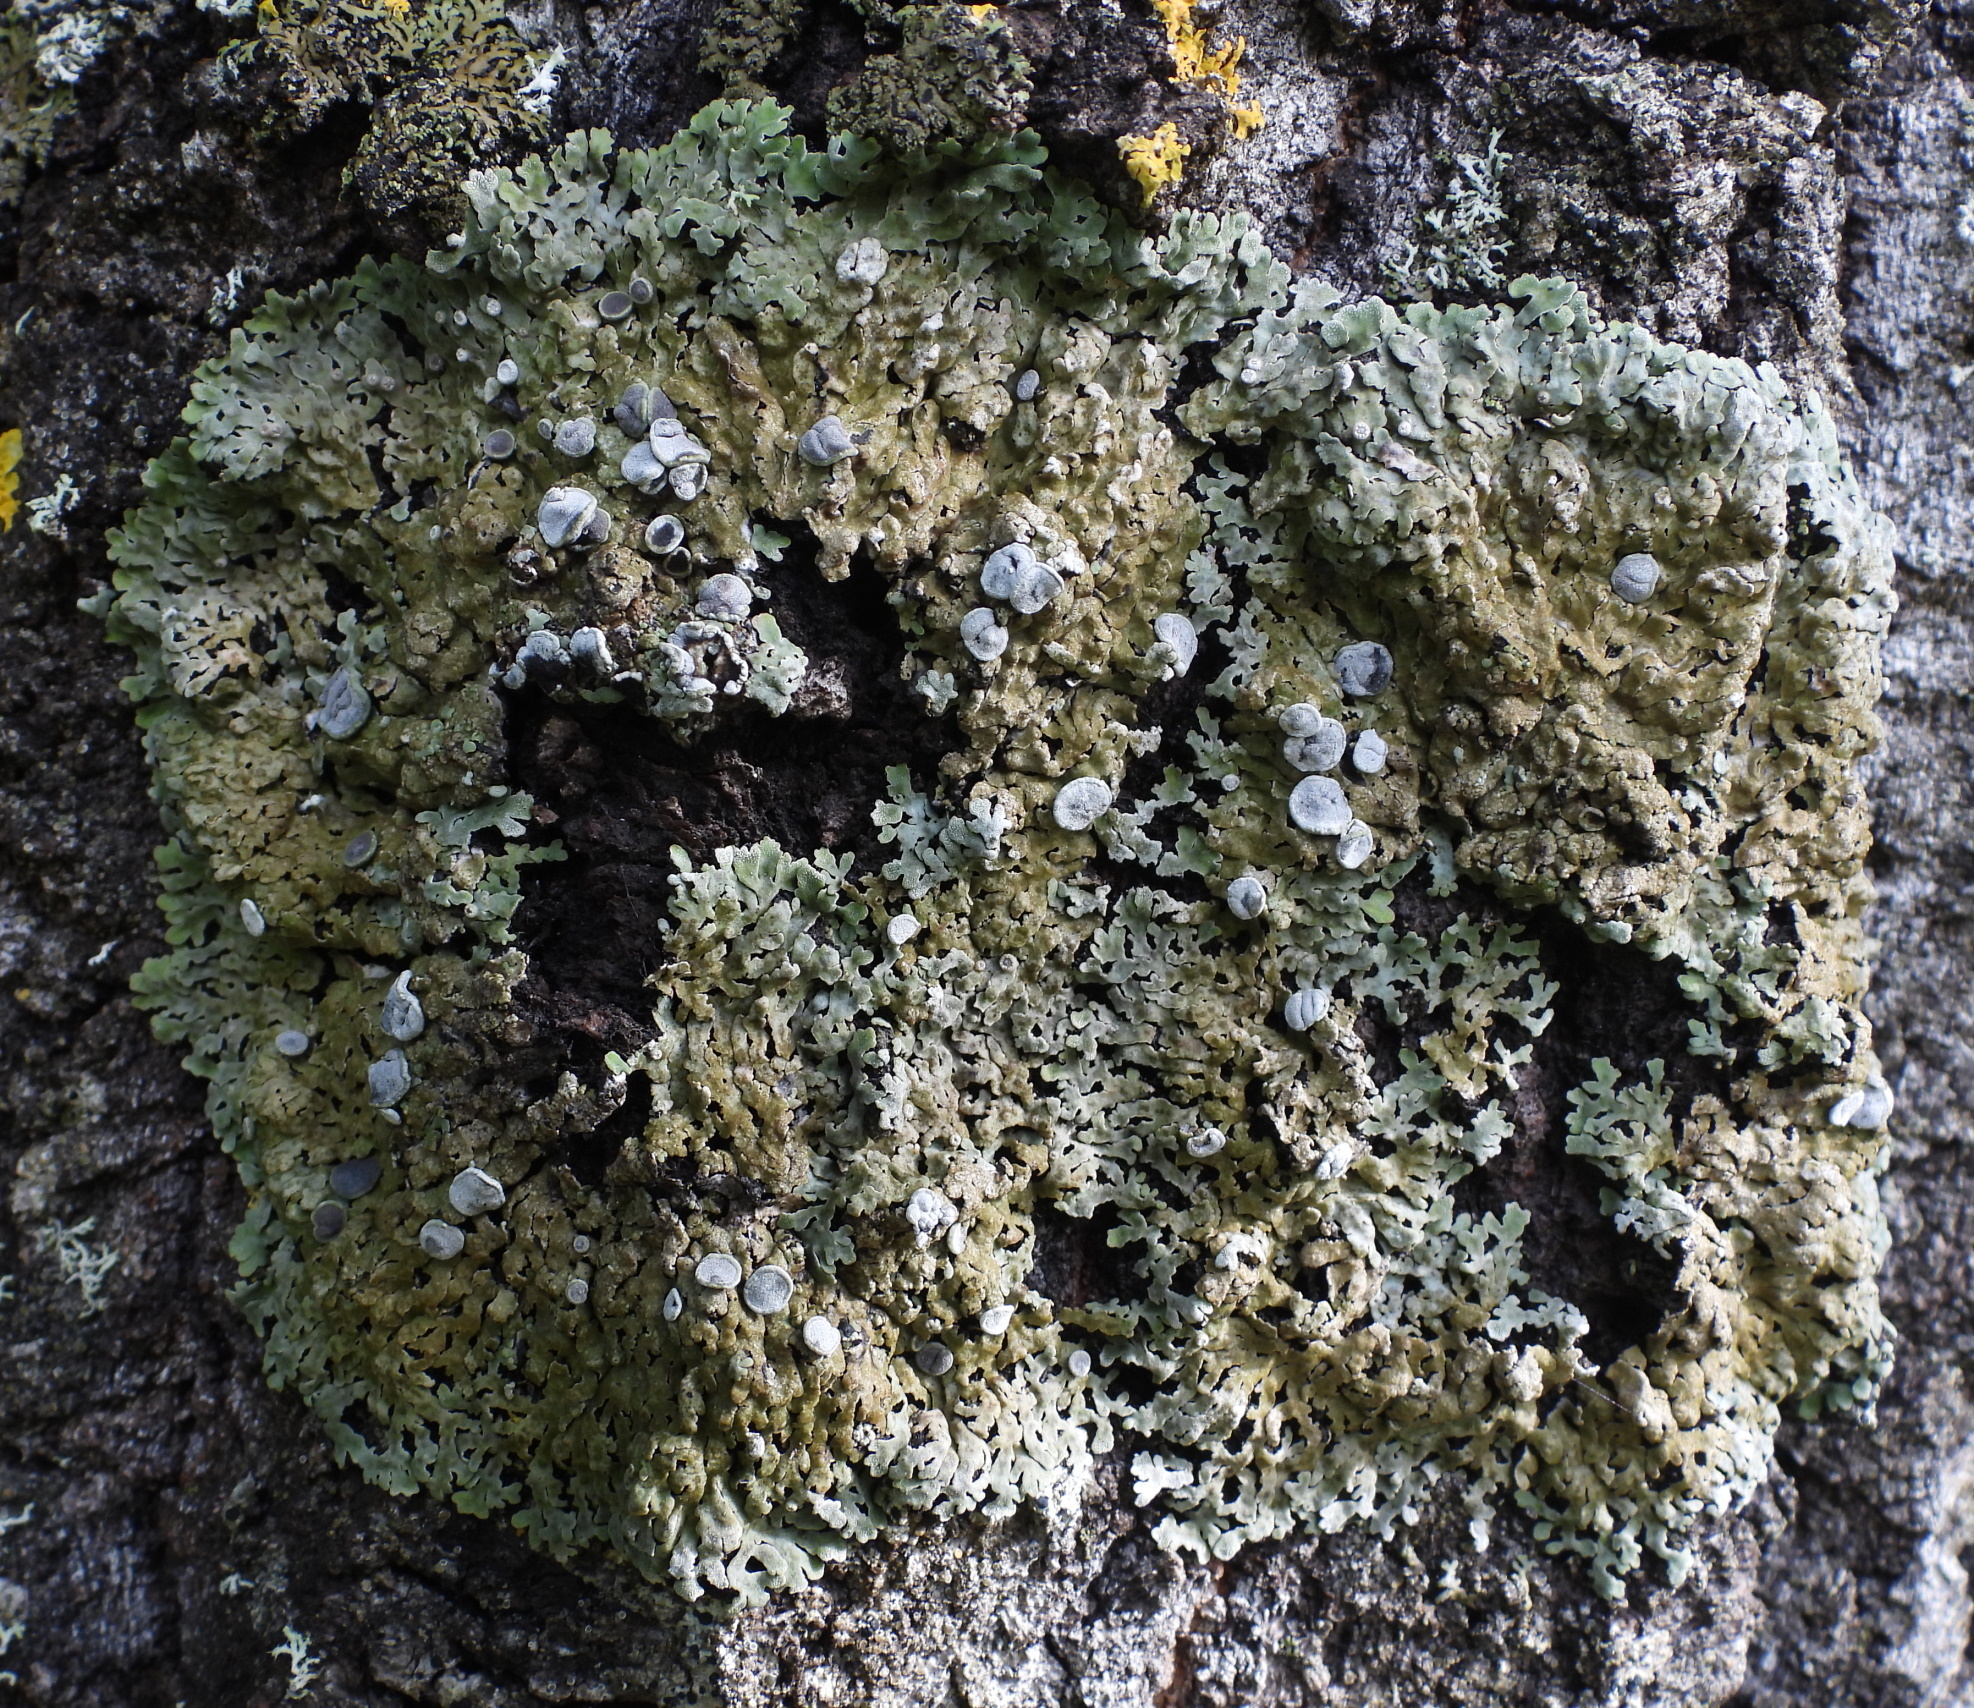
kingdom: Fungi
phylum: Ascomycota
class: Lecanoromycetes
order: Caliciales
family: Physciaceae
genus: Physconia
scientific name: Physconia distorta
